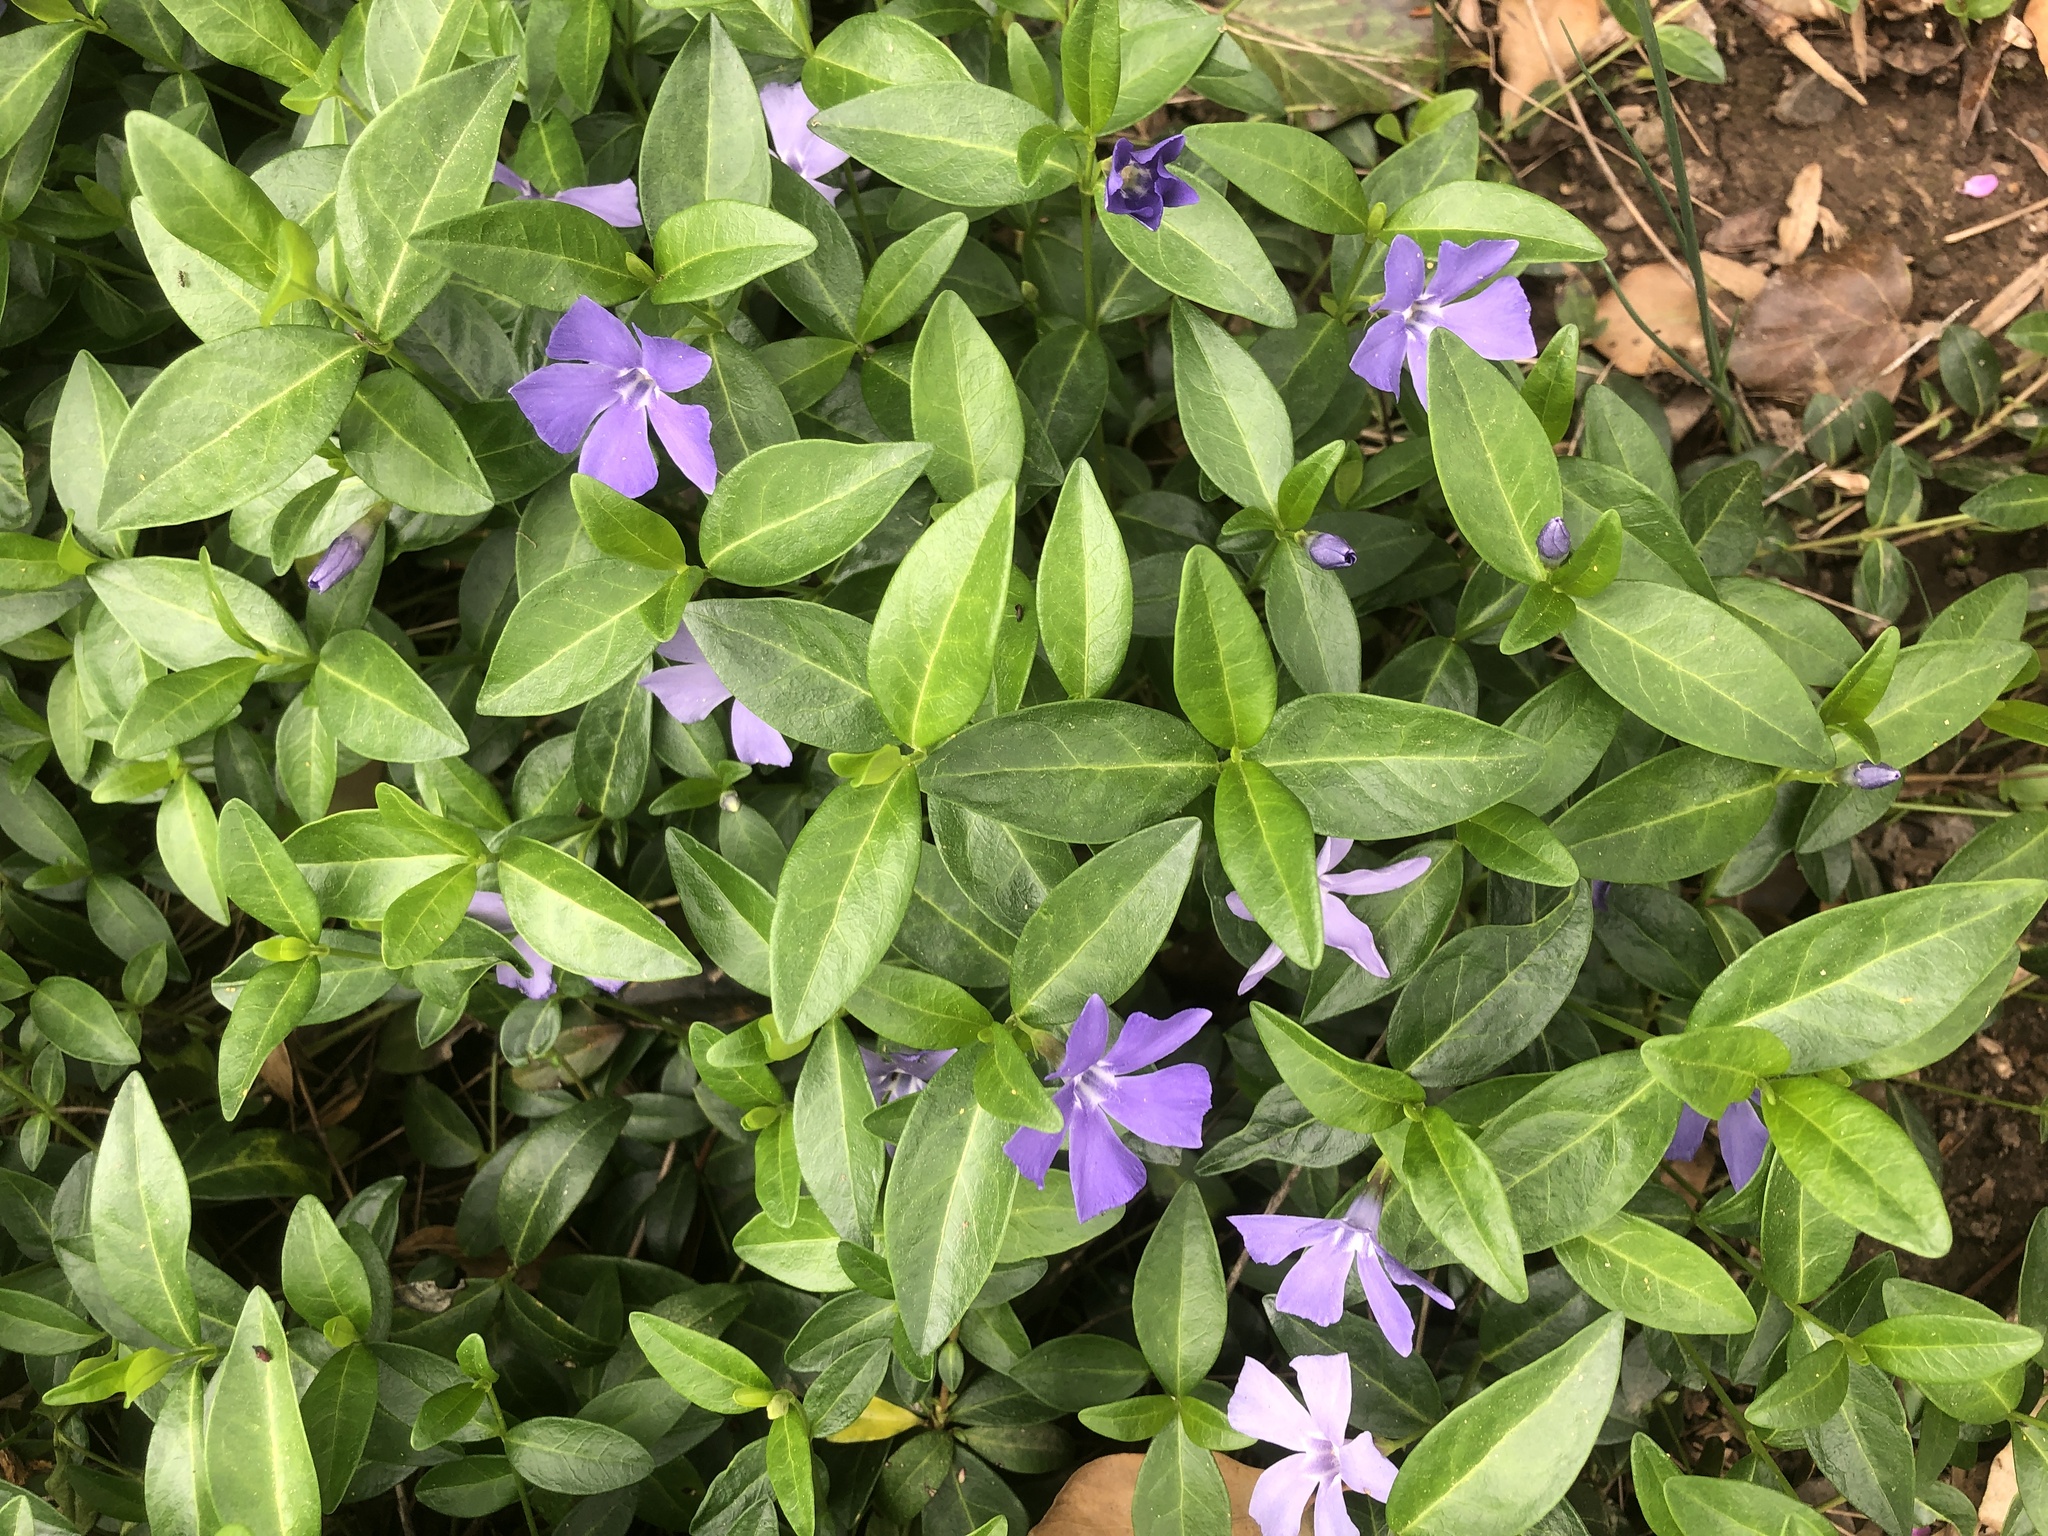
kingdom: Plantae
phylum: Tracheophyta
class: Magnoliopsida
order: Gentianales
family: Apocynaceae
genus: Vinca
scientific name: Vinca minor
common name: Lesser periwinkle
